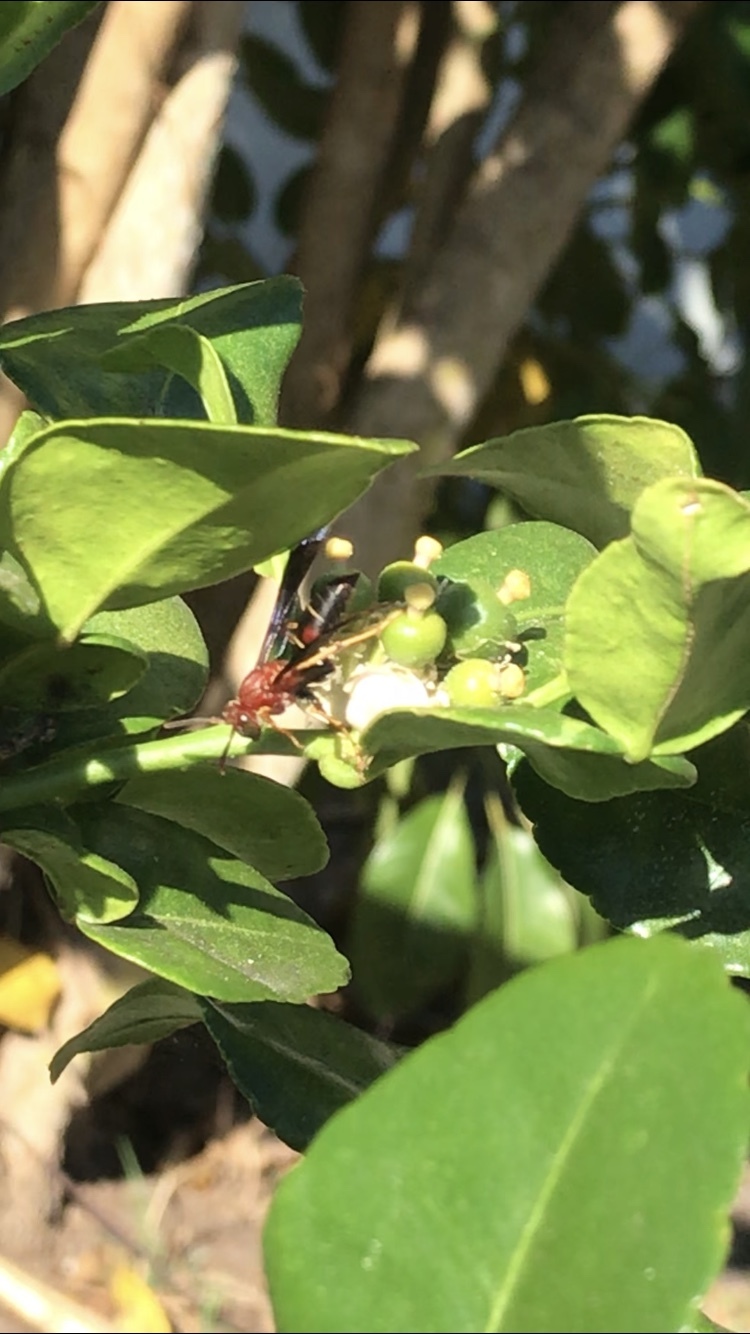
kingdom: Animalia
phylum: Arthropoda
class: Insecta
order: Hymenoptera
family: Eumenidae
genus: Polistes
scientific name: Polistes fuscatus
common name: Dark paper wasp
